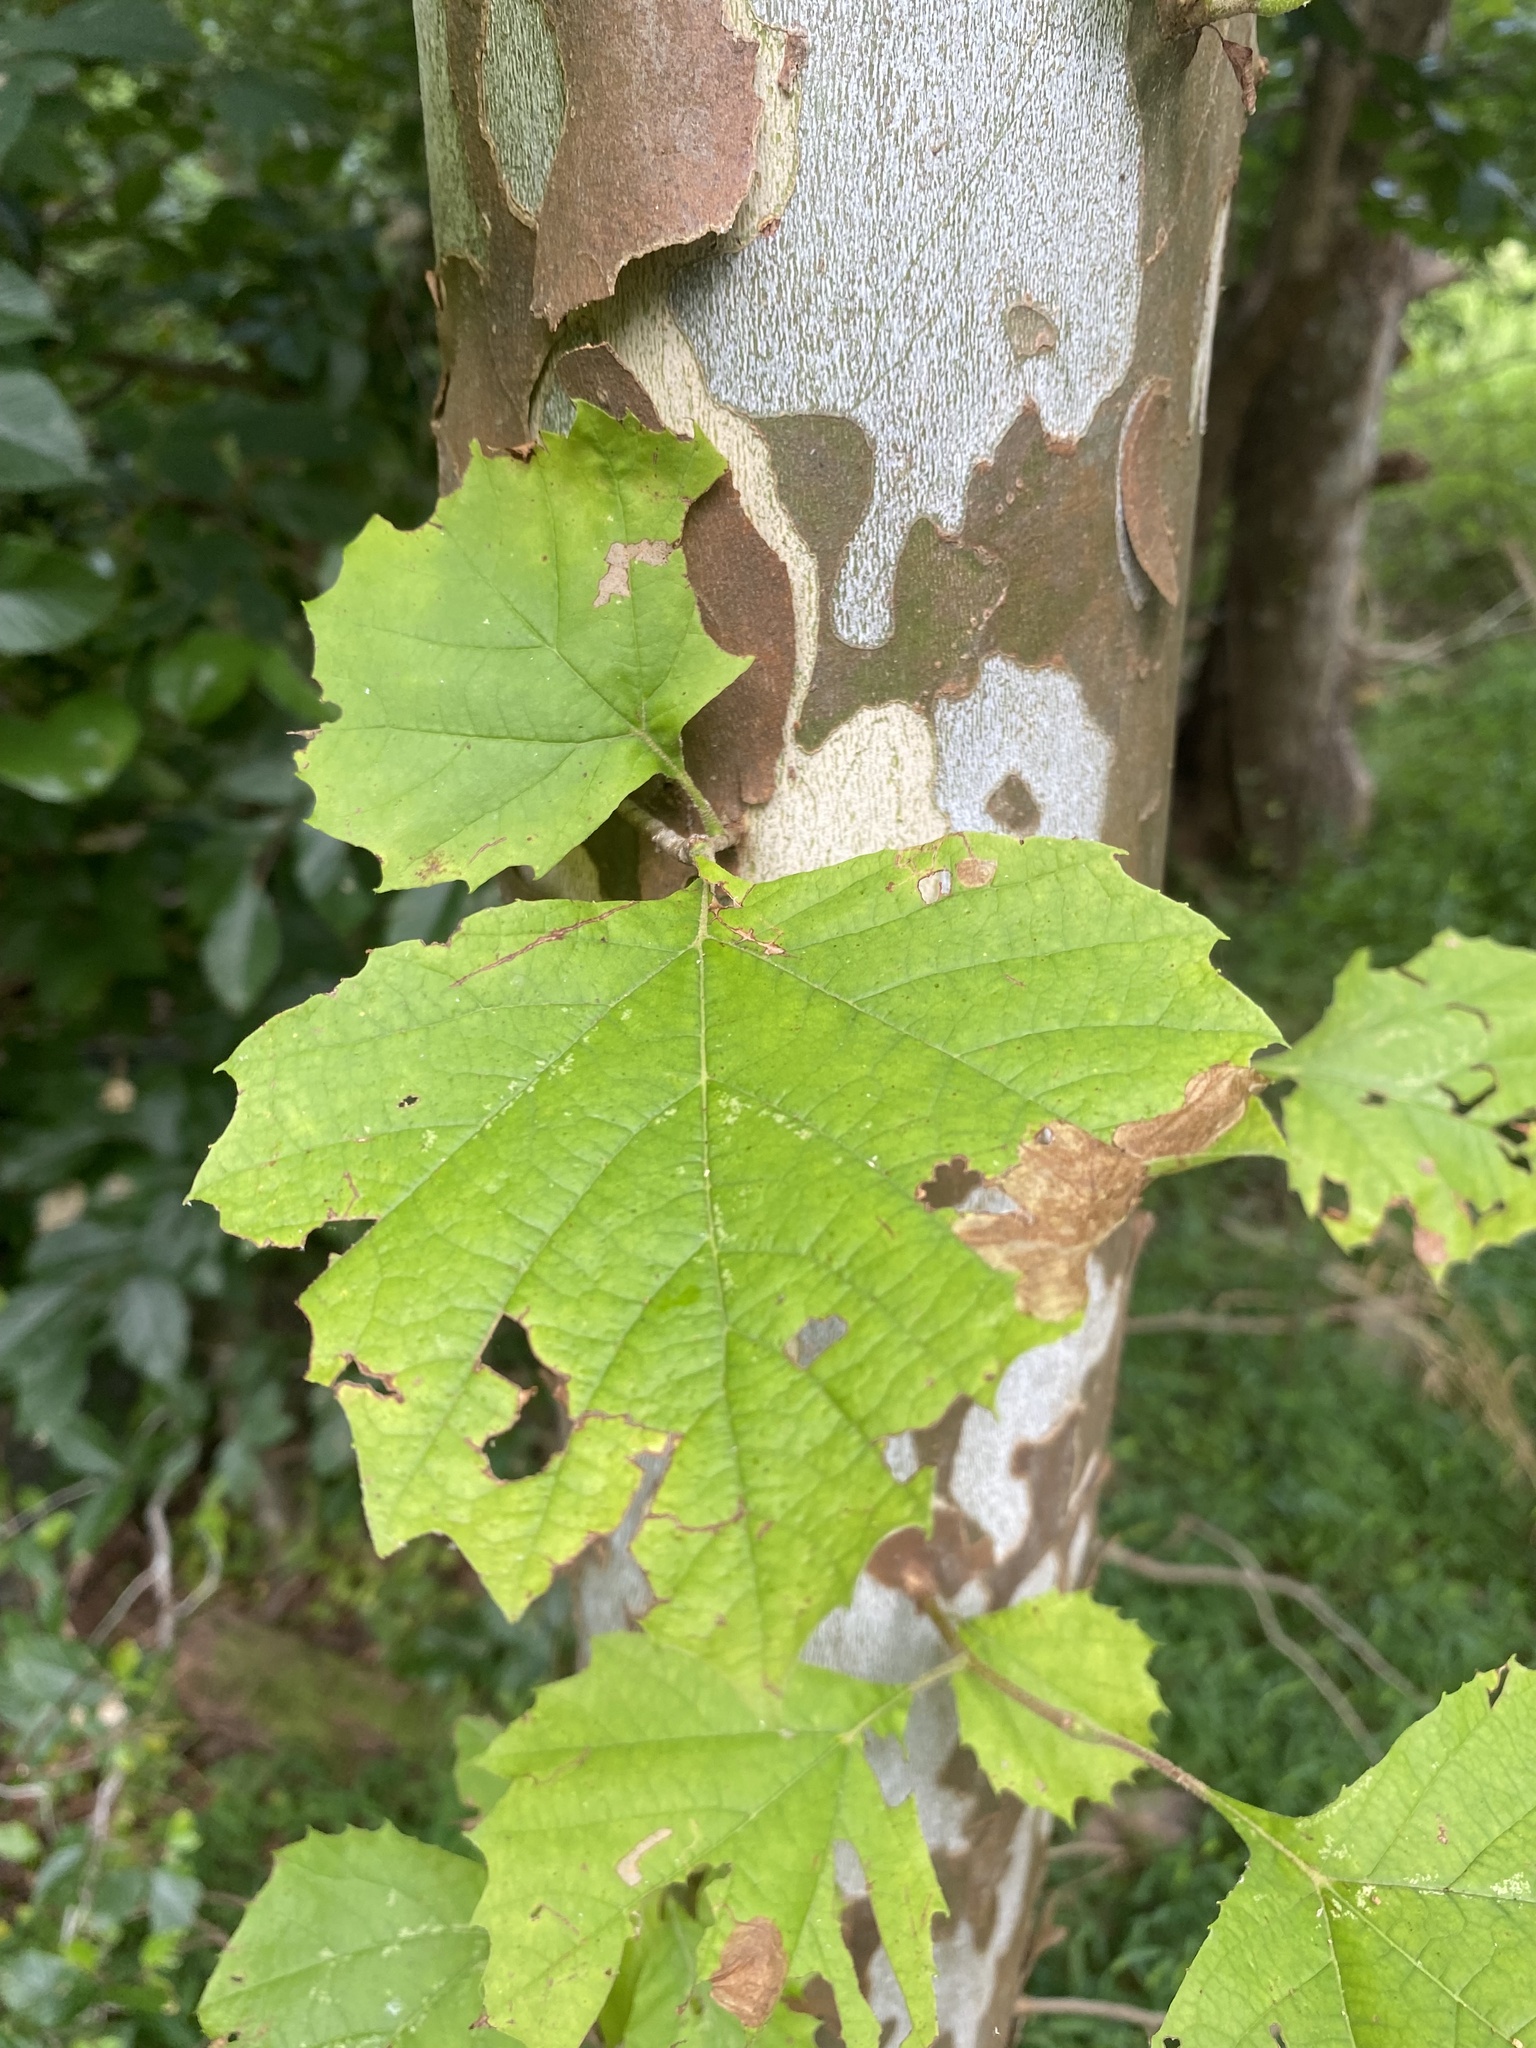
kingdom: Plantae
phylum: Tracheophyta
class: Magnoliopsida
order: Proteales
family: Platanaceae
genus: Platanus
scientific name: Platanus occidentalis
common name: American sycamore
